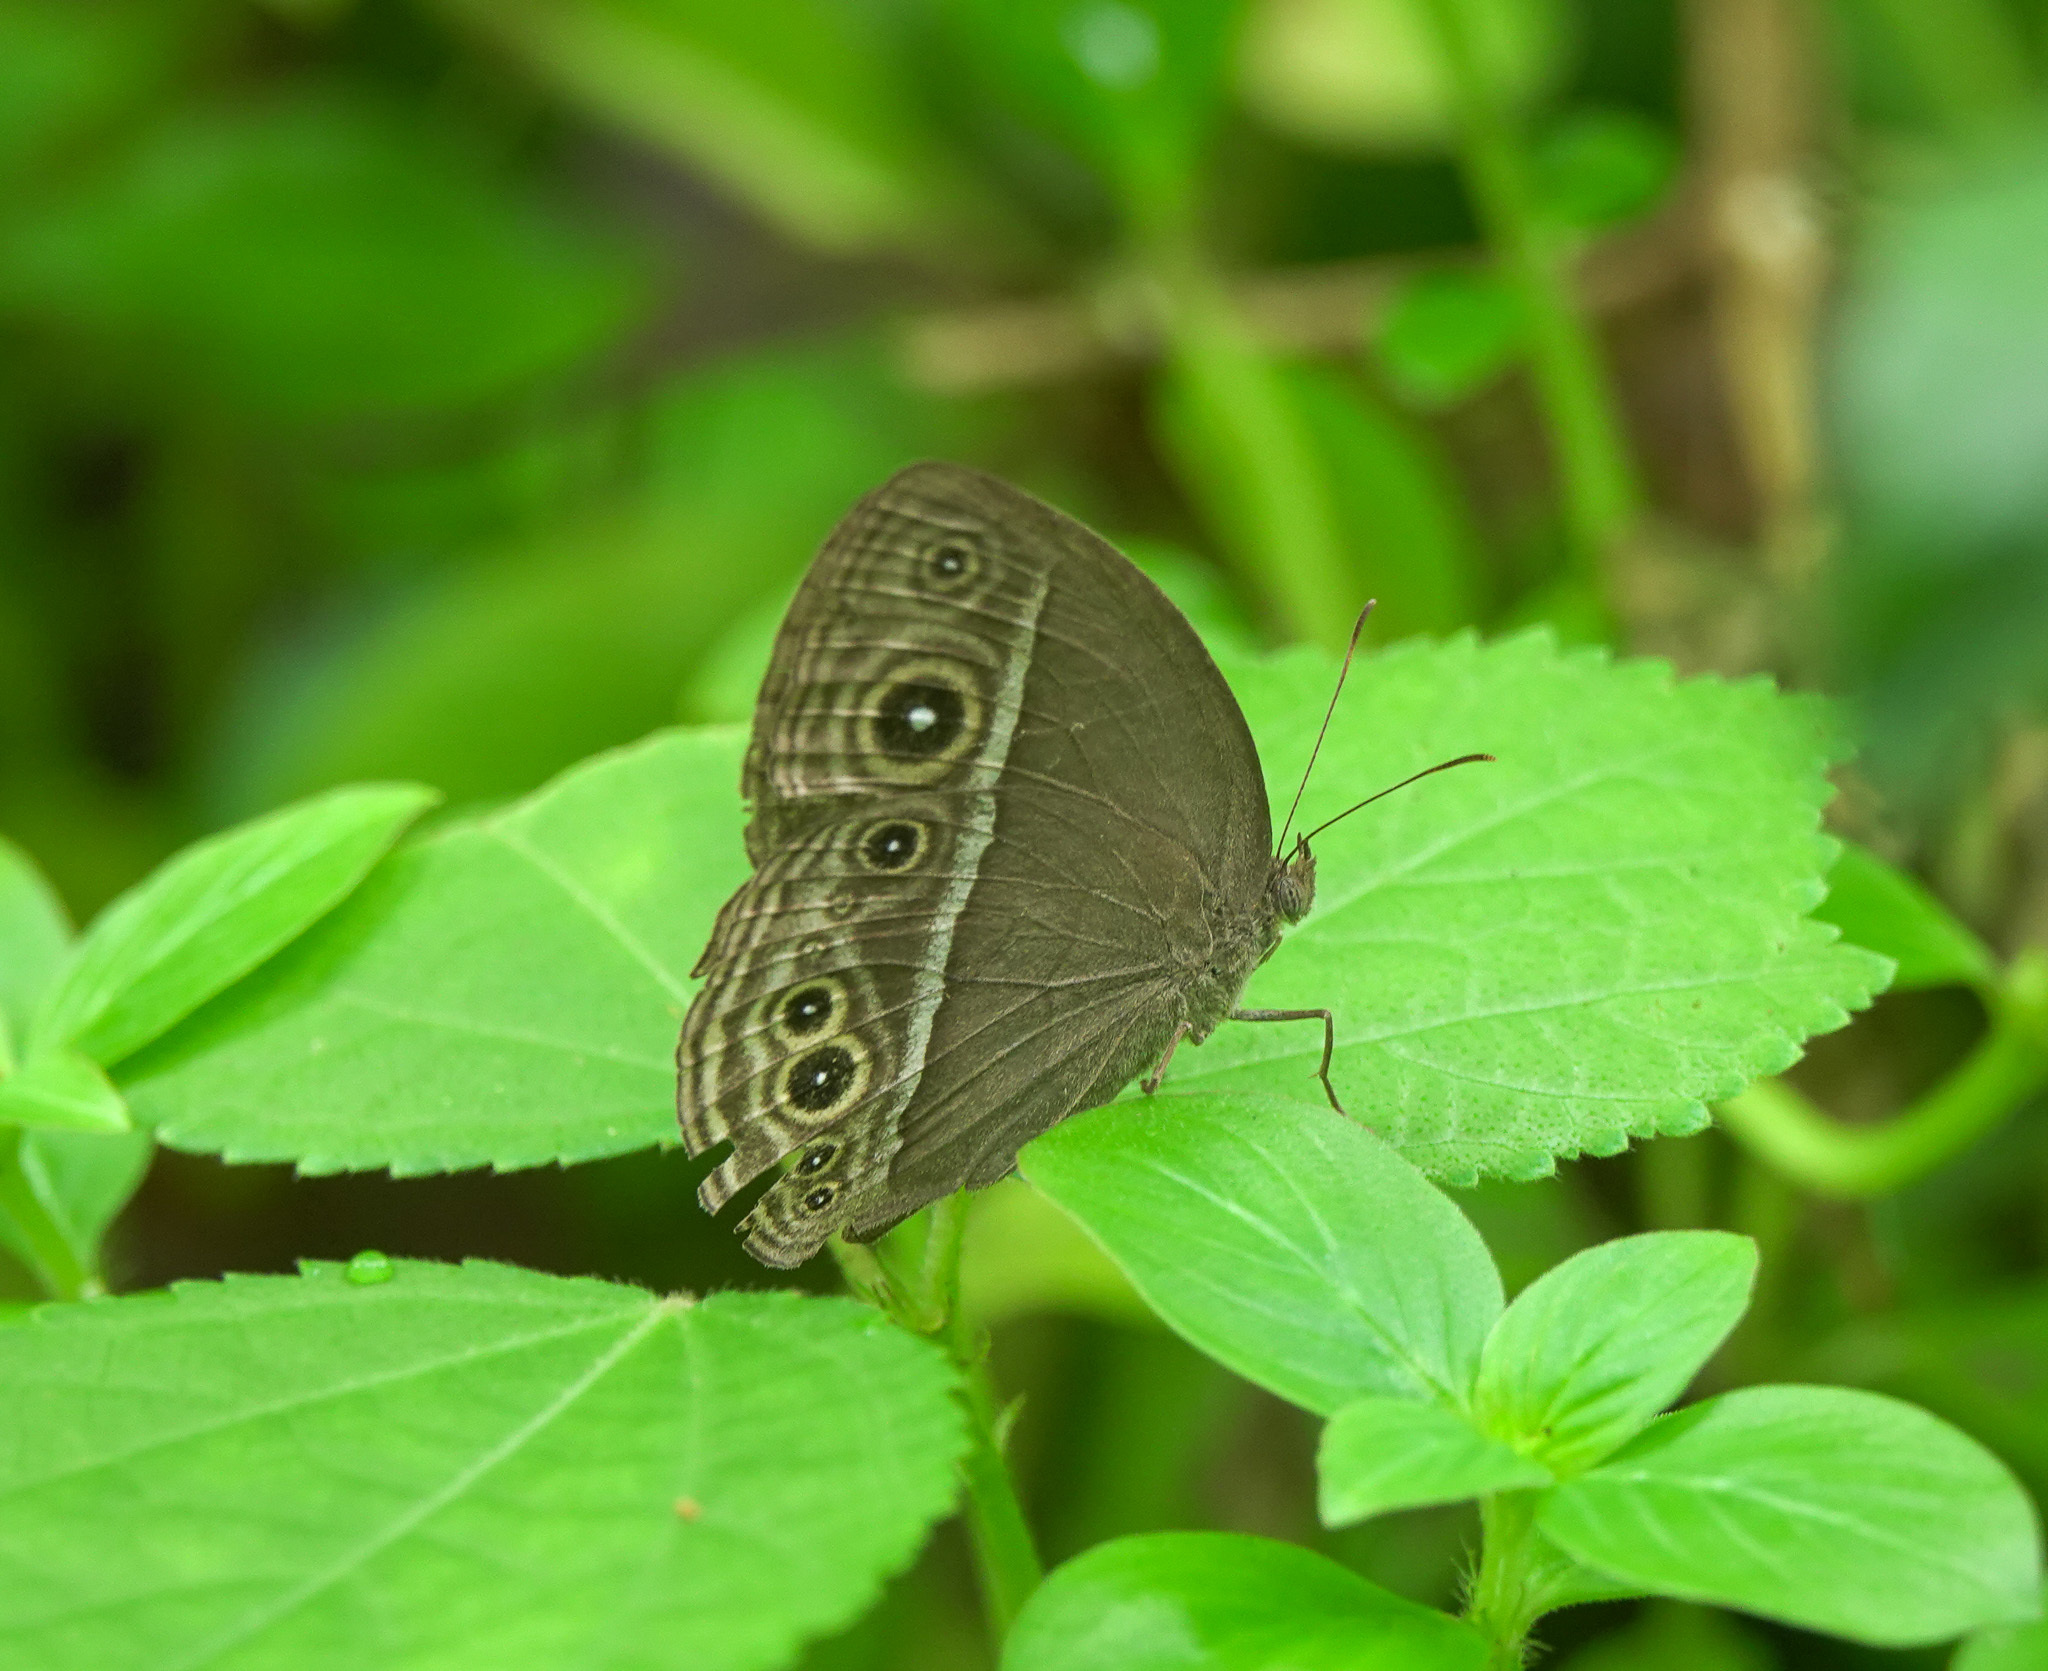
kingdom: Animalia
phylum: Arthropoda
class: Insecta
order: Lepidoptera
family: Nymphalidae
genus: Mycalesis
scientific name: Mycalesis mineus
